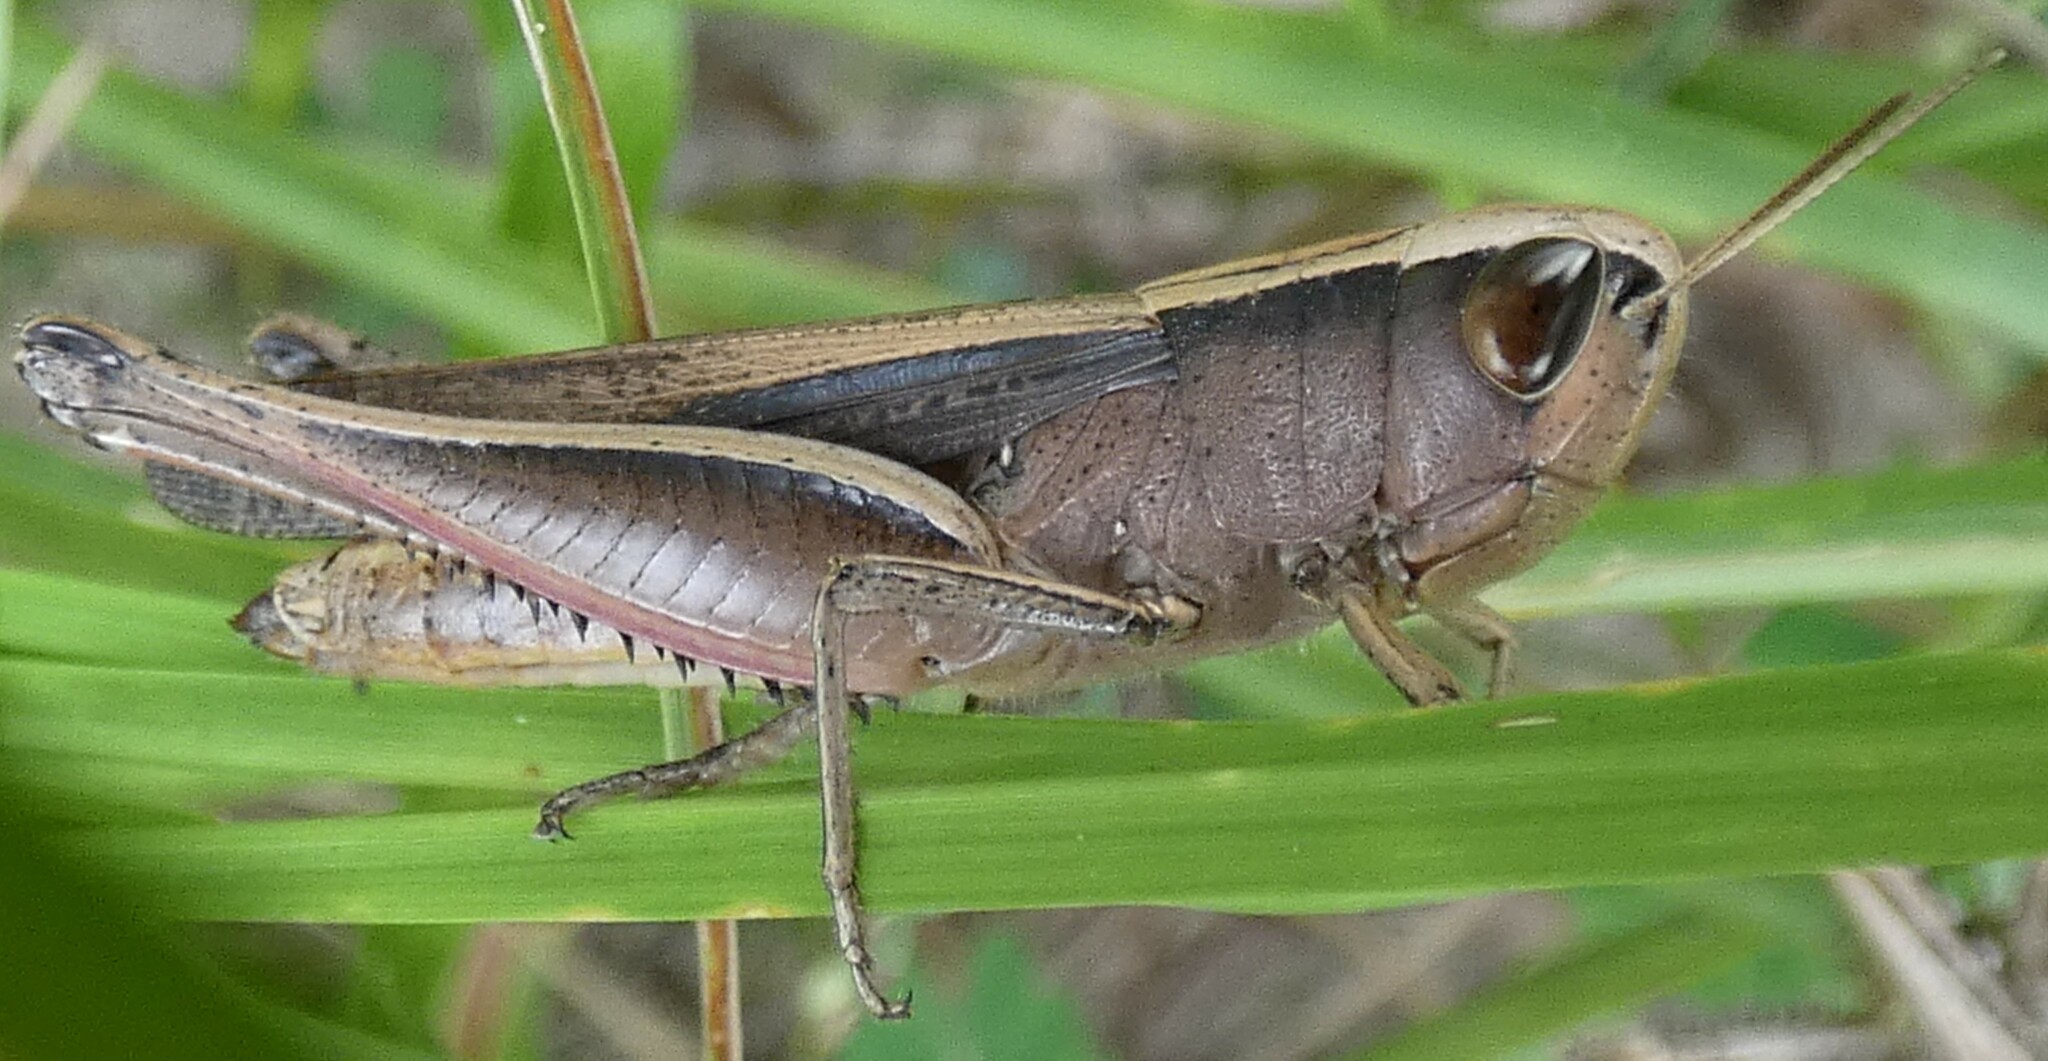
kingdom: Animalia
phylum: Arthropoda
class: Insecta
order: Orthoptera
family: Acrididae
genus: Amblytropidia
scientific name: Amblytropidia mysteca
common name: Brown winter grasshopper
